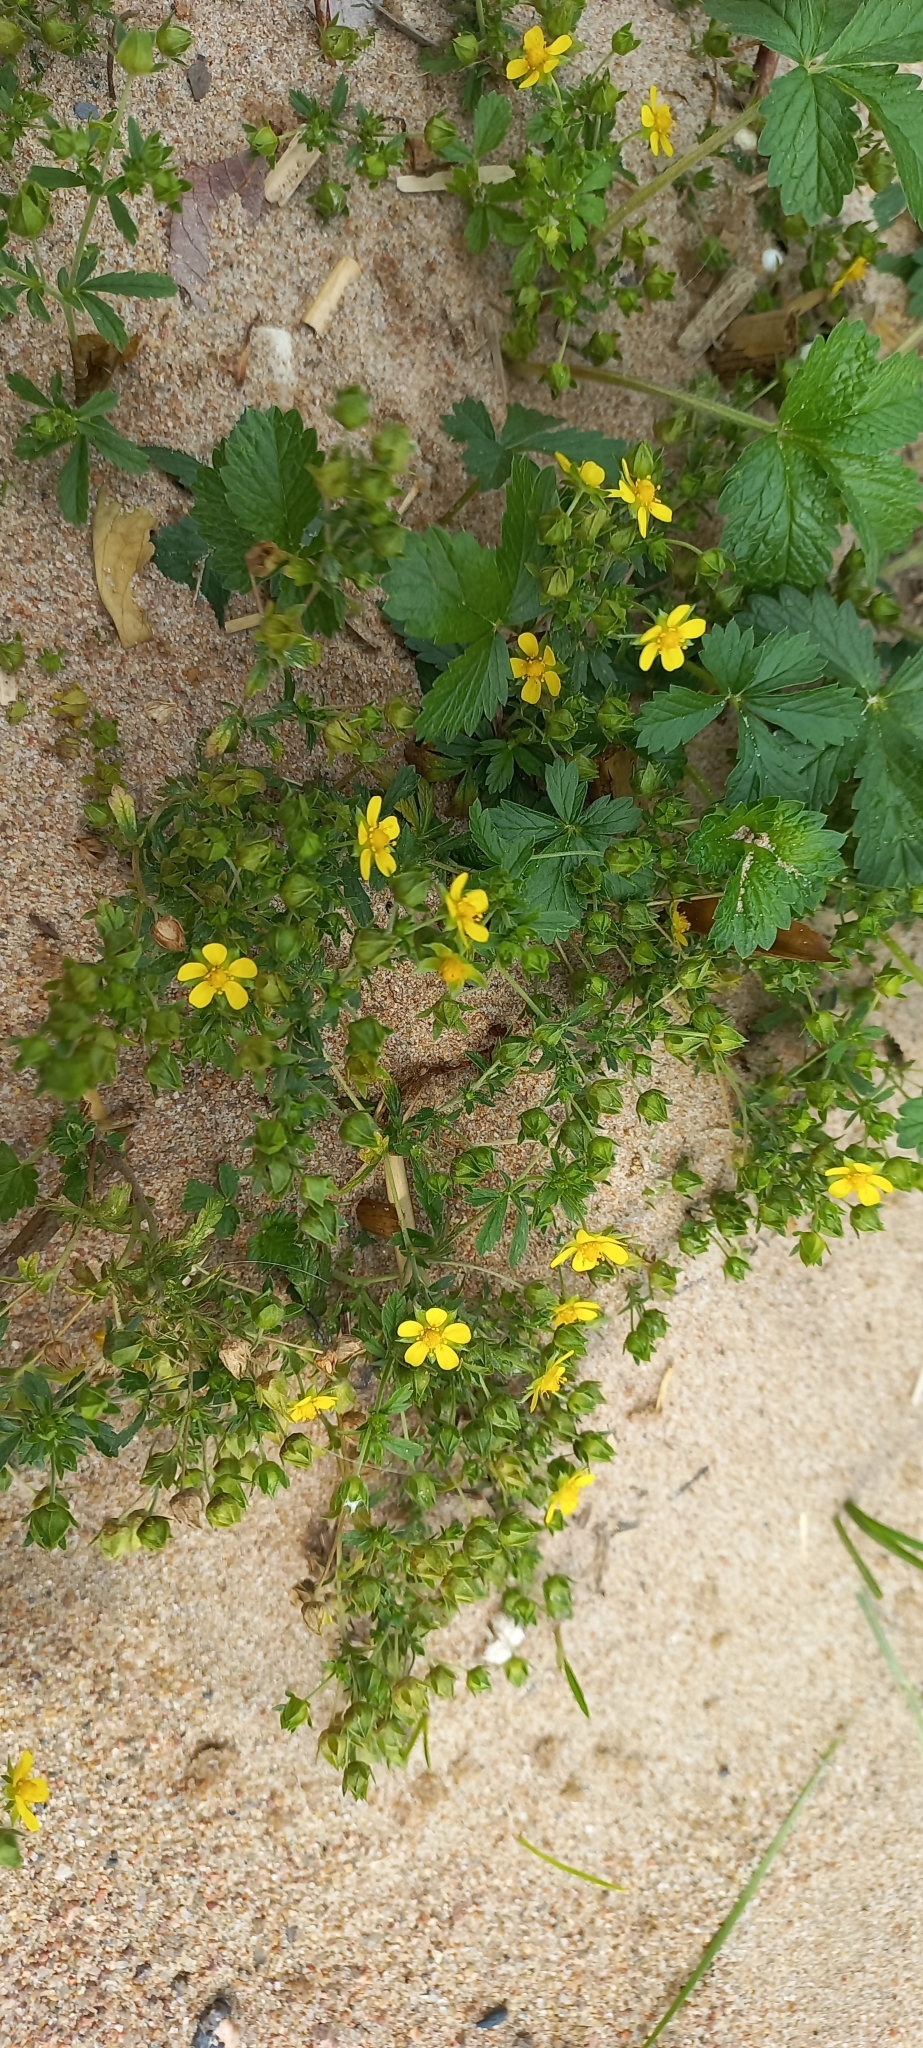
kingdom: Plantae
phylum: Tracheophyta
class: Magnoliopsida
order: Rosales
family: Rosaceae
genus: Potentilla
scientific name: Potentilla intermedia
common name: Downy cinquefoil
